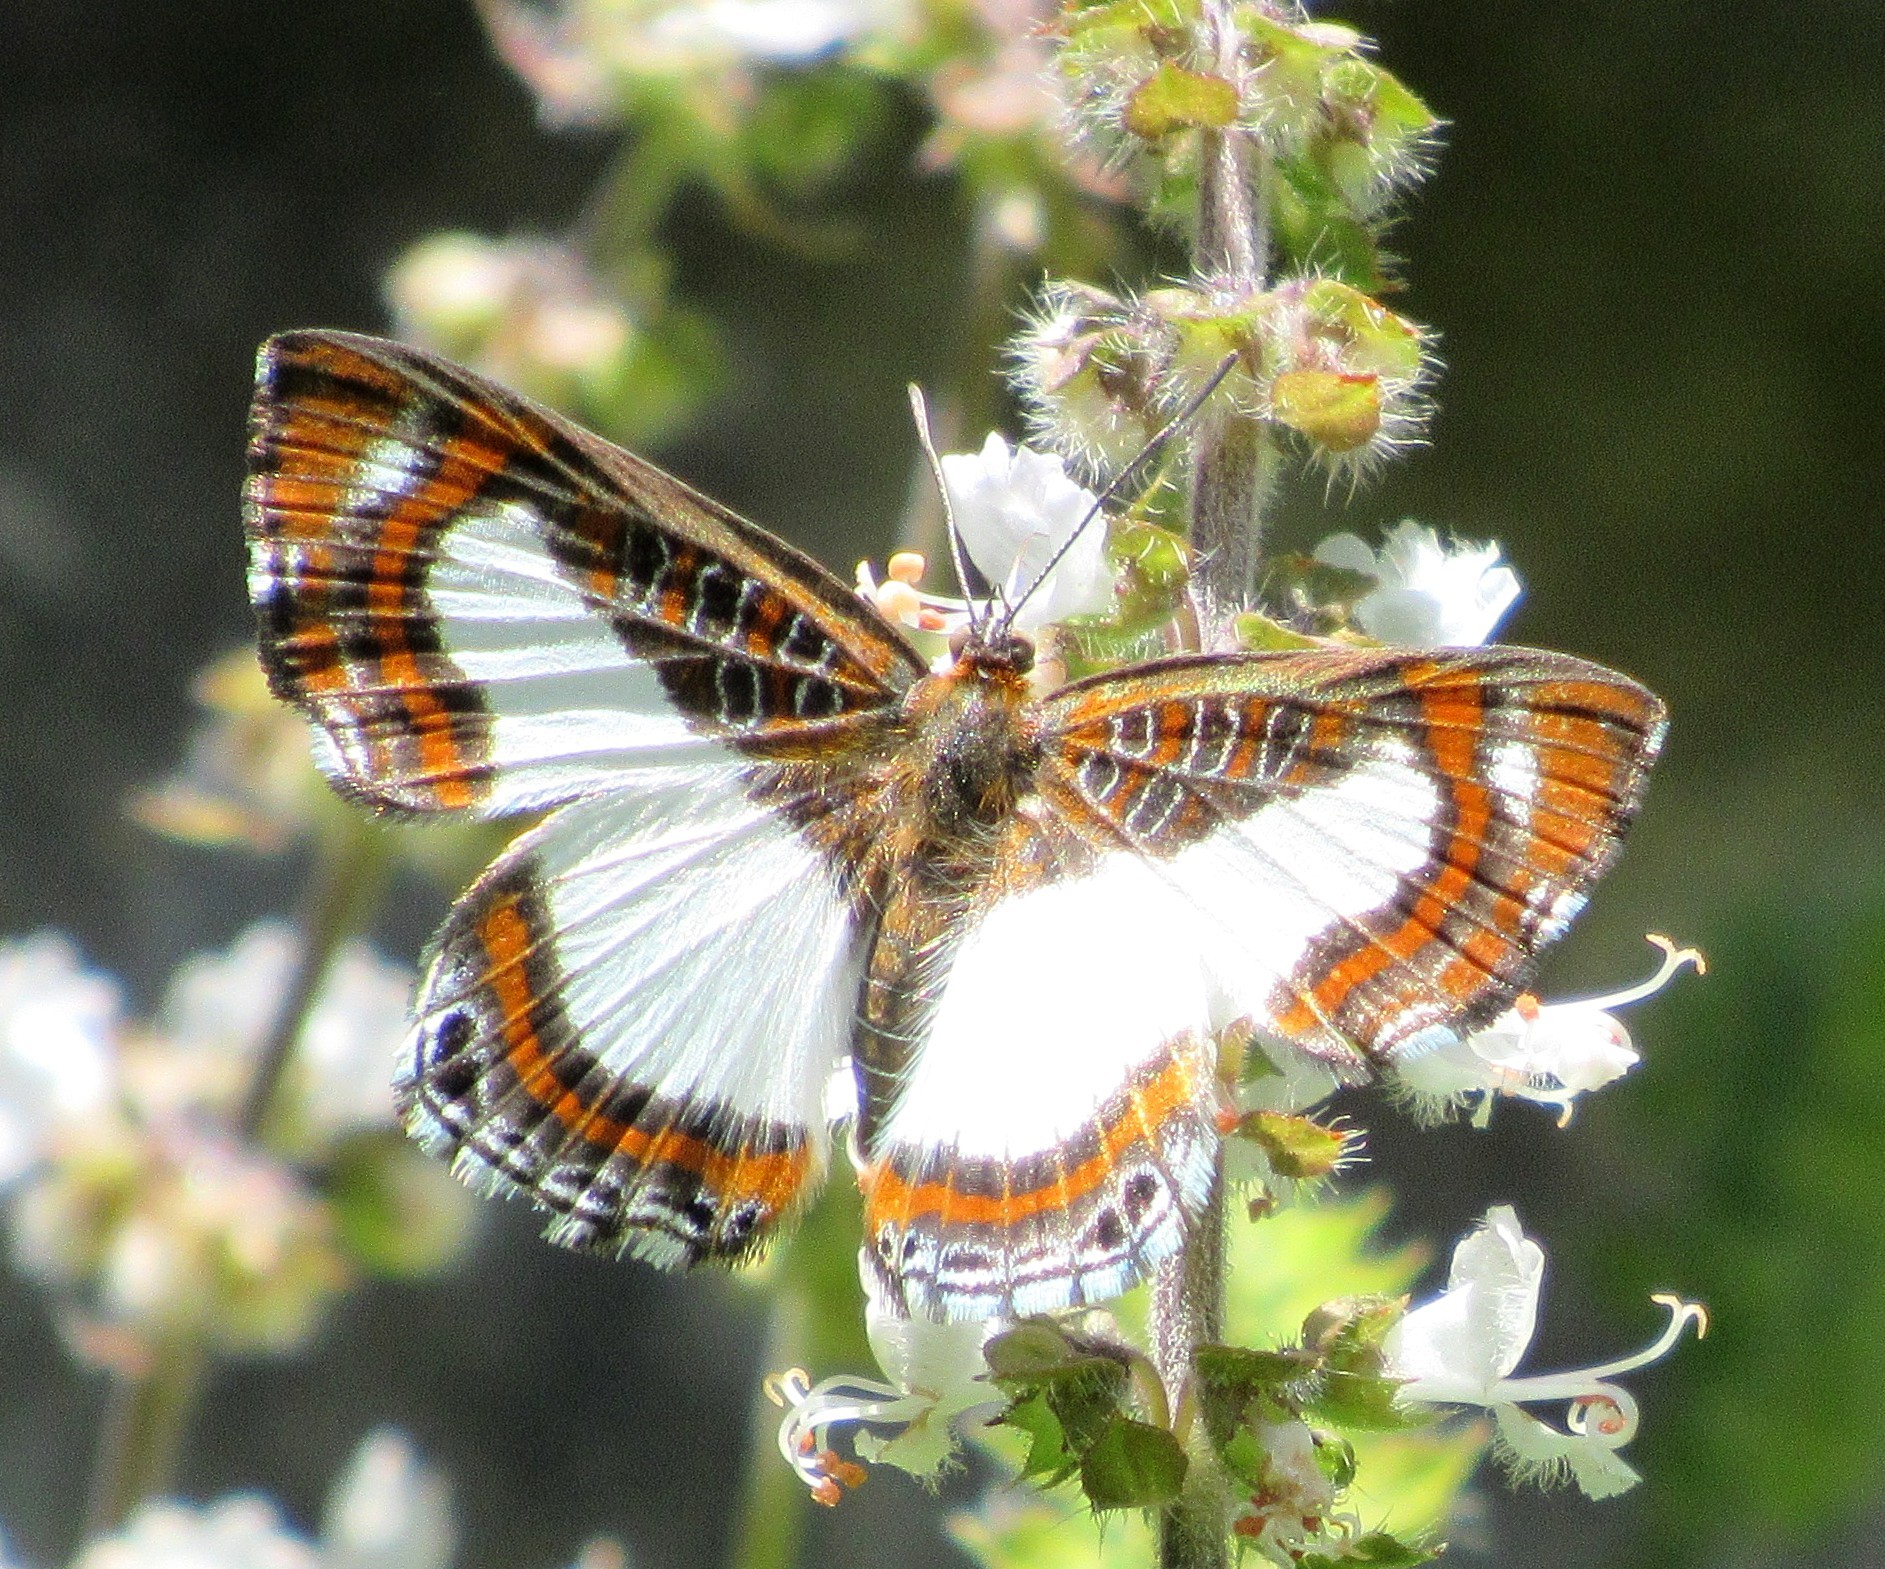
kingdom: Animalia
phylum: Arthropoda
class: Insecta
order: Lepidoptera
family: Riodinidae
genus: Synargis
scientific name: Synargis
